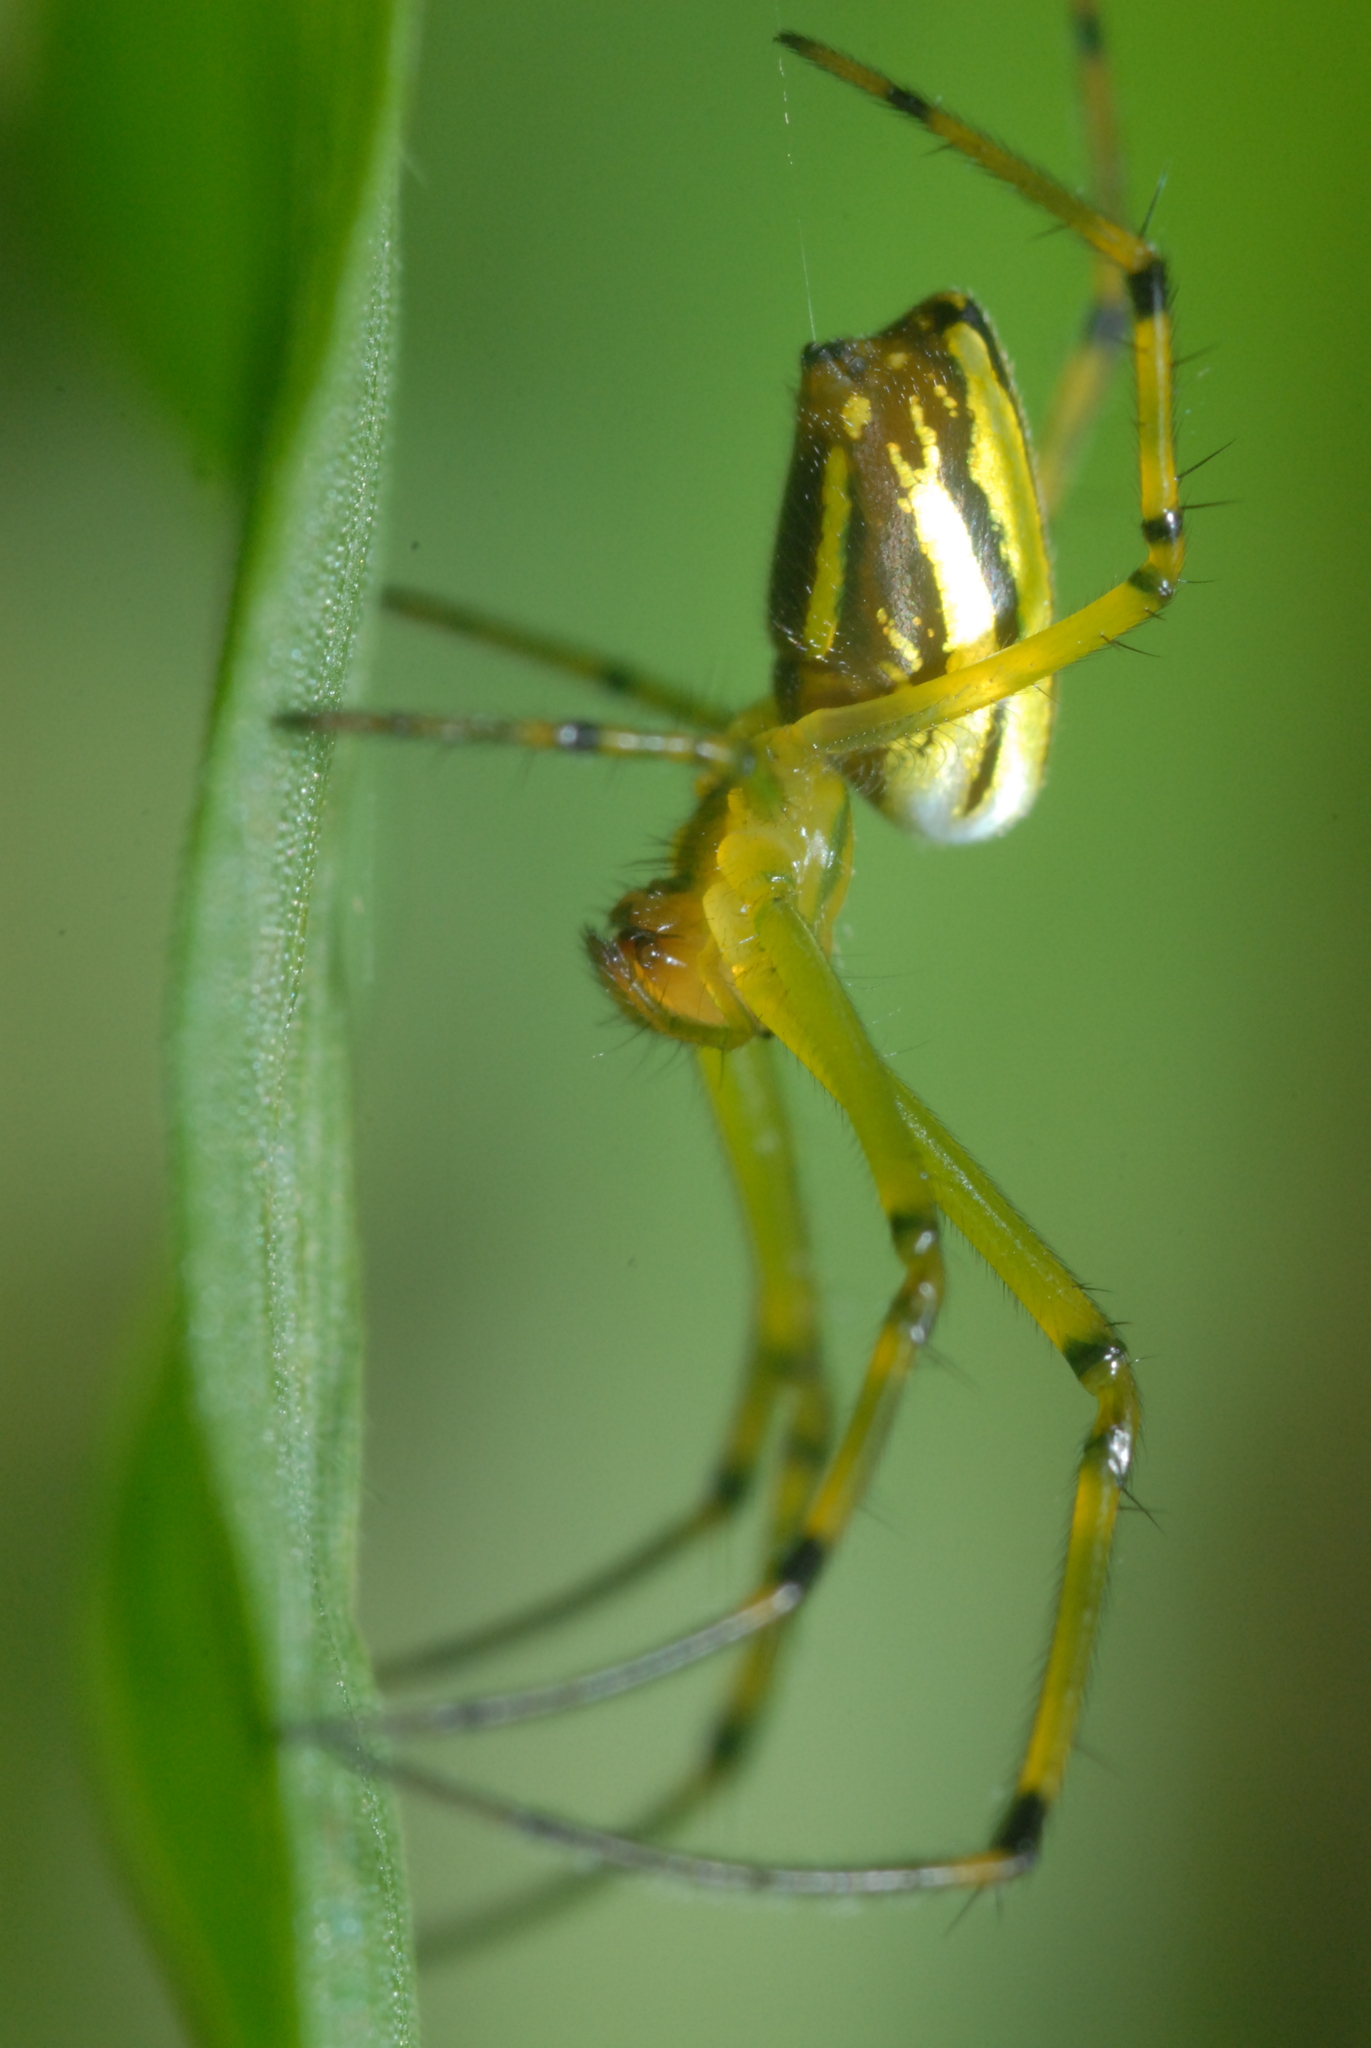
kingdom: Animalia
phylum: Arthropoda
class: Arachnida
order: Araneae
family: Tetragnathidae
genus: Leucauge
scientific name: Leucauge celebesiana
